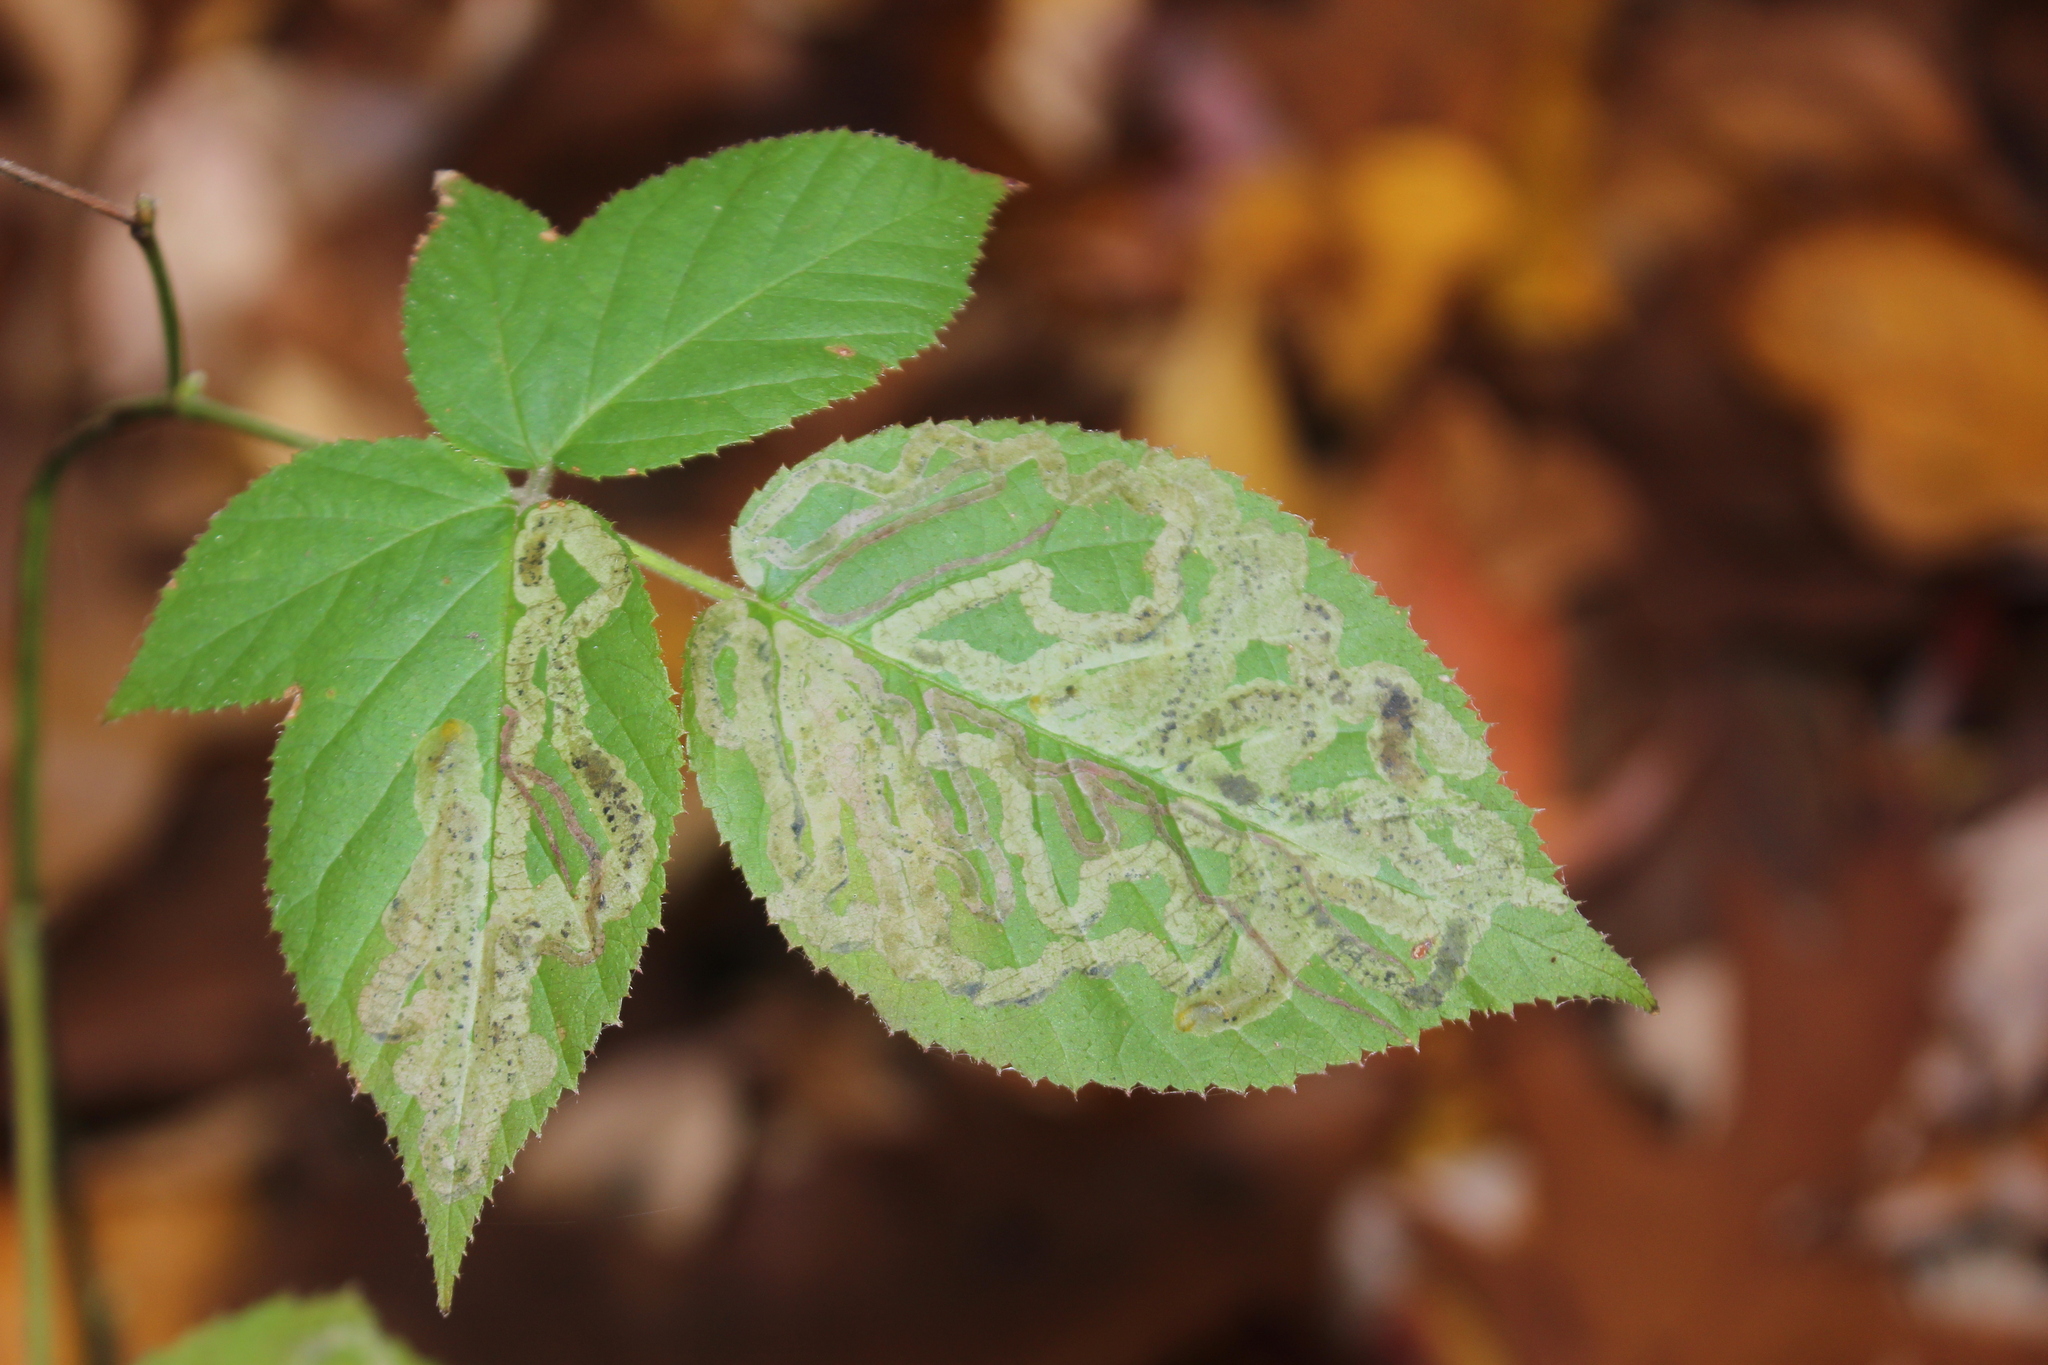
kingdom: Animalia
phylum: Arthropoda
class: Insecta
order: Diptera
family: Agromyzidae
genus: Agromyza
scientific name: Agromyza vockerothi
